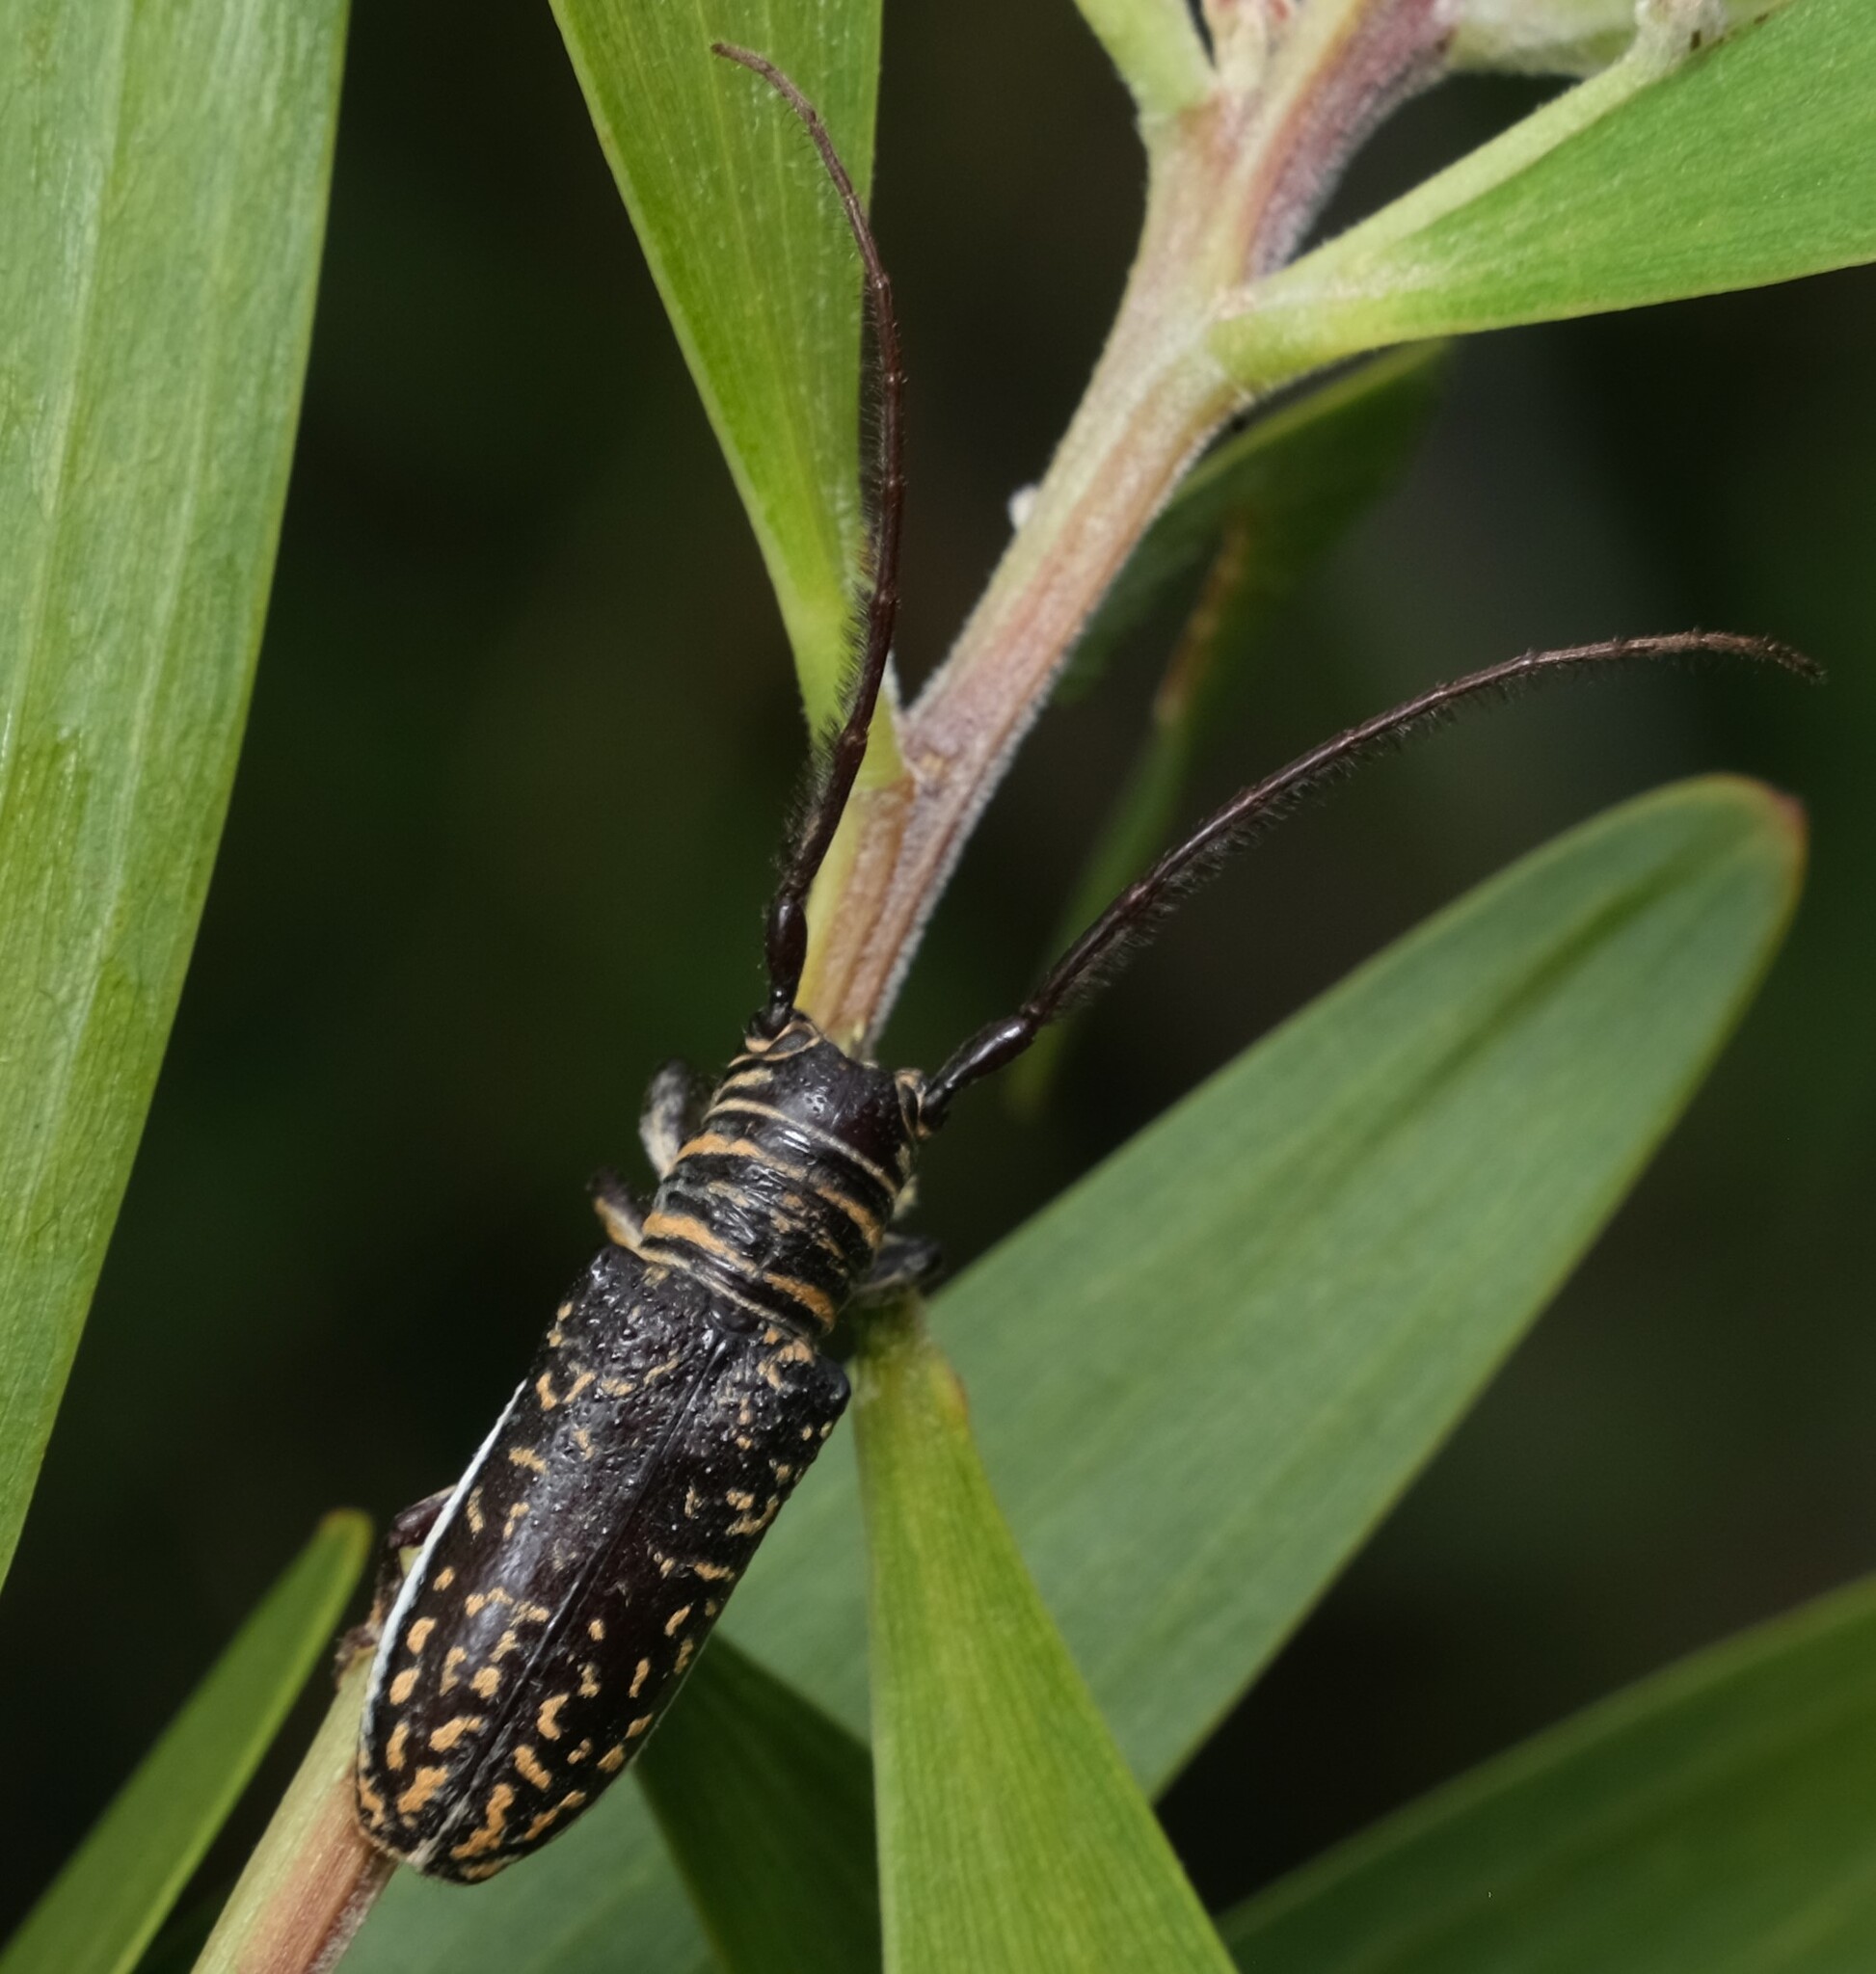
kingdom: Animalia
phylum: Arthropoda
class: Insecta
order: Coleoptera
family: Cerambycidae
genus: Rhytiphora
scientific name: Rhytiphora vestigialis
